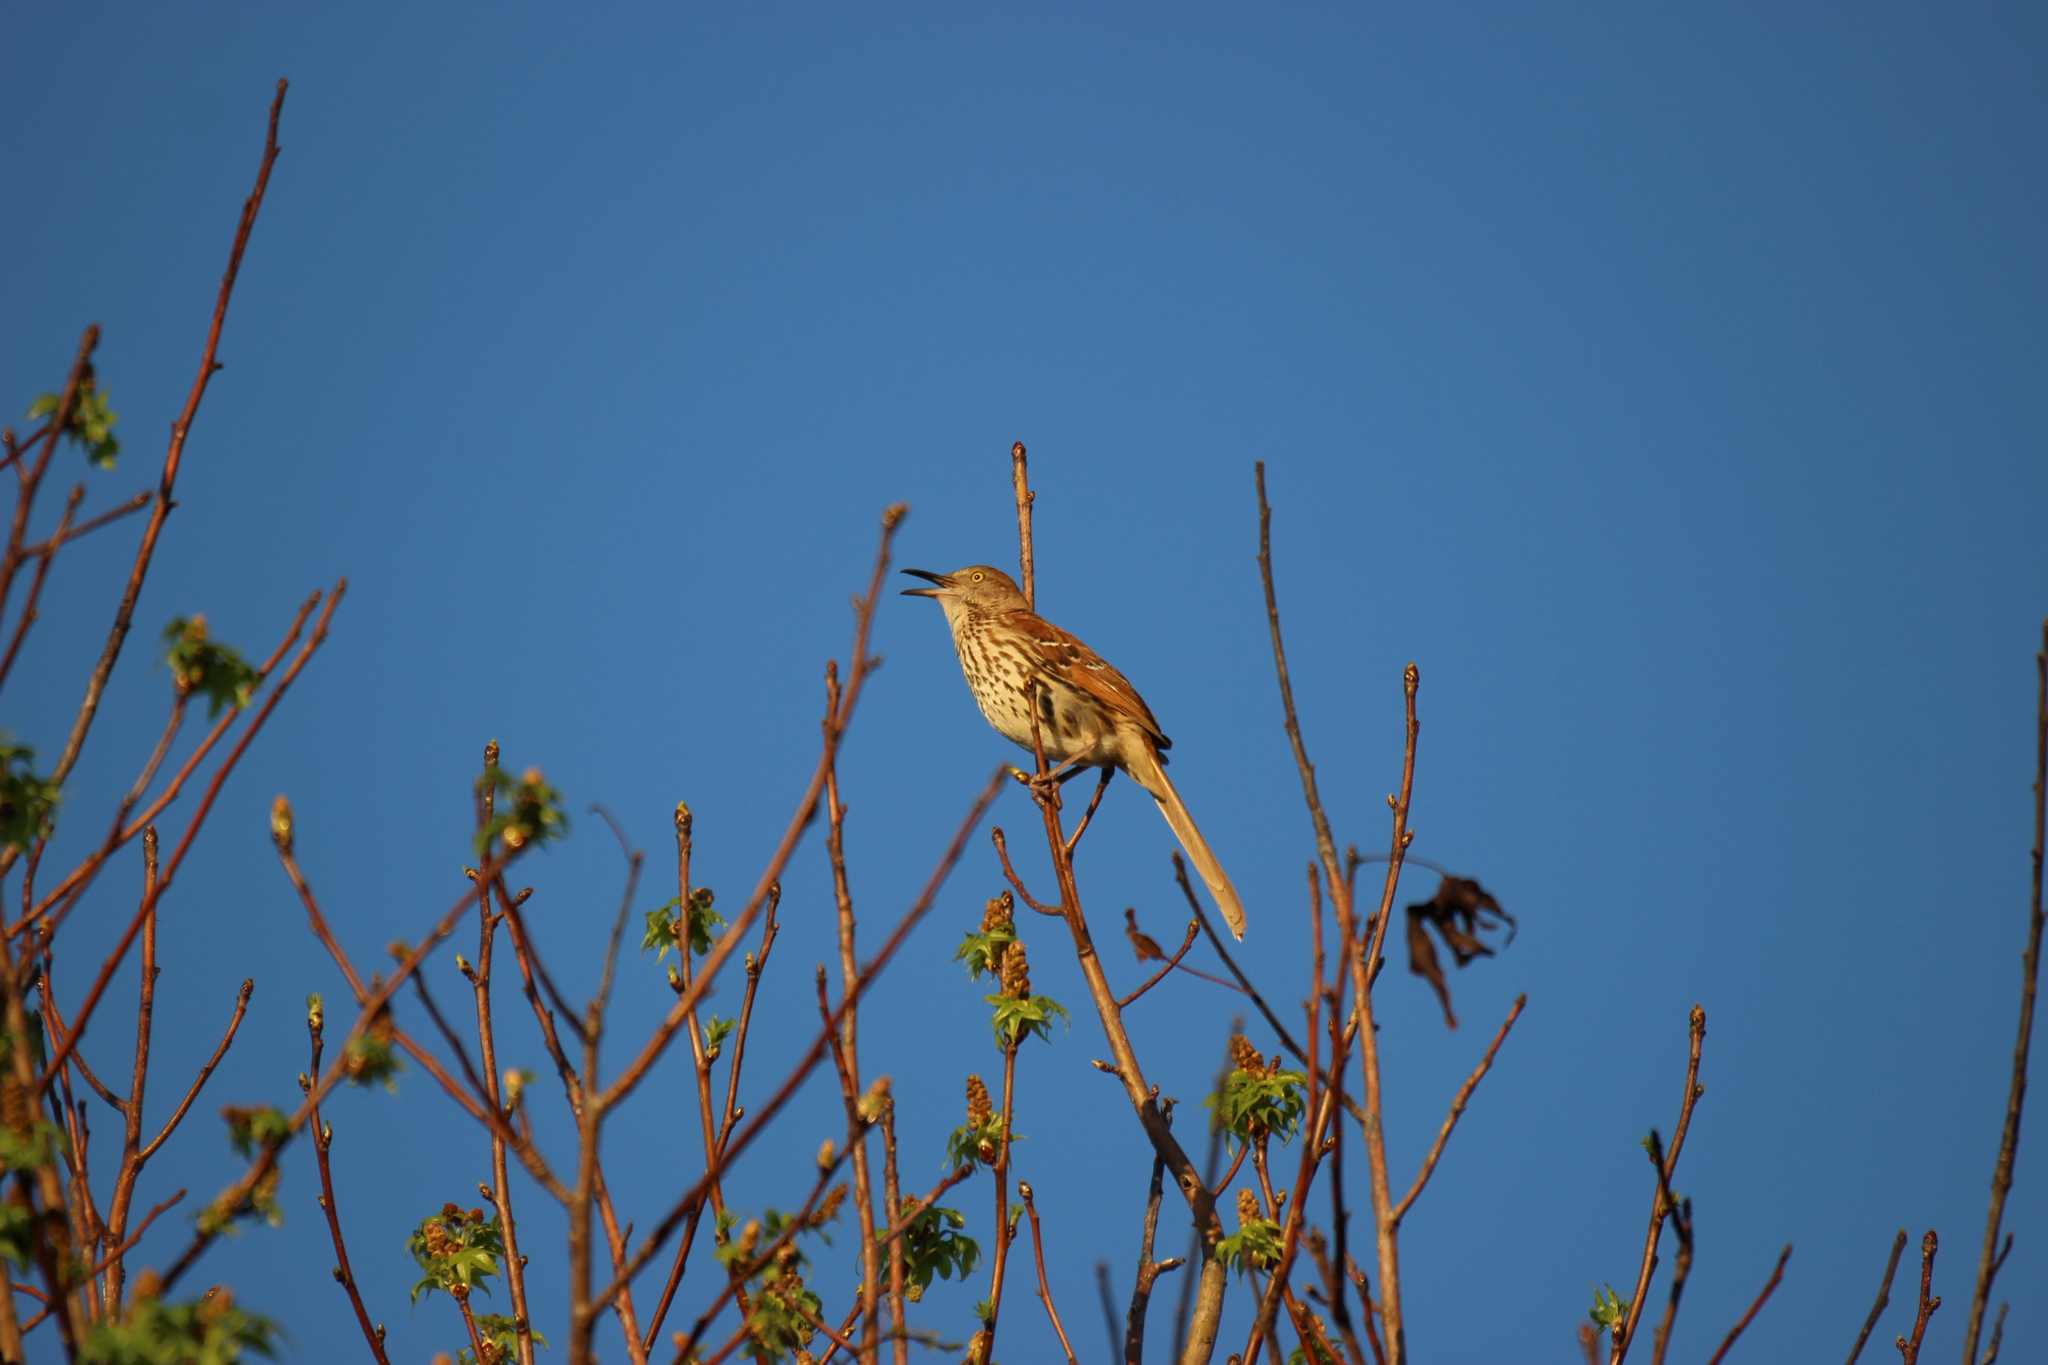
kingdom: Animalia
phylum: Chordata
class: Aves
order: Passeriformes
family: Mimidae
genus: Toxostoma
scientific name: Toxostoma rufum
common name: Brown thrasher
